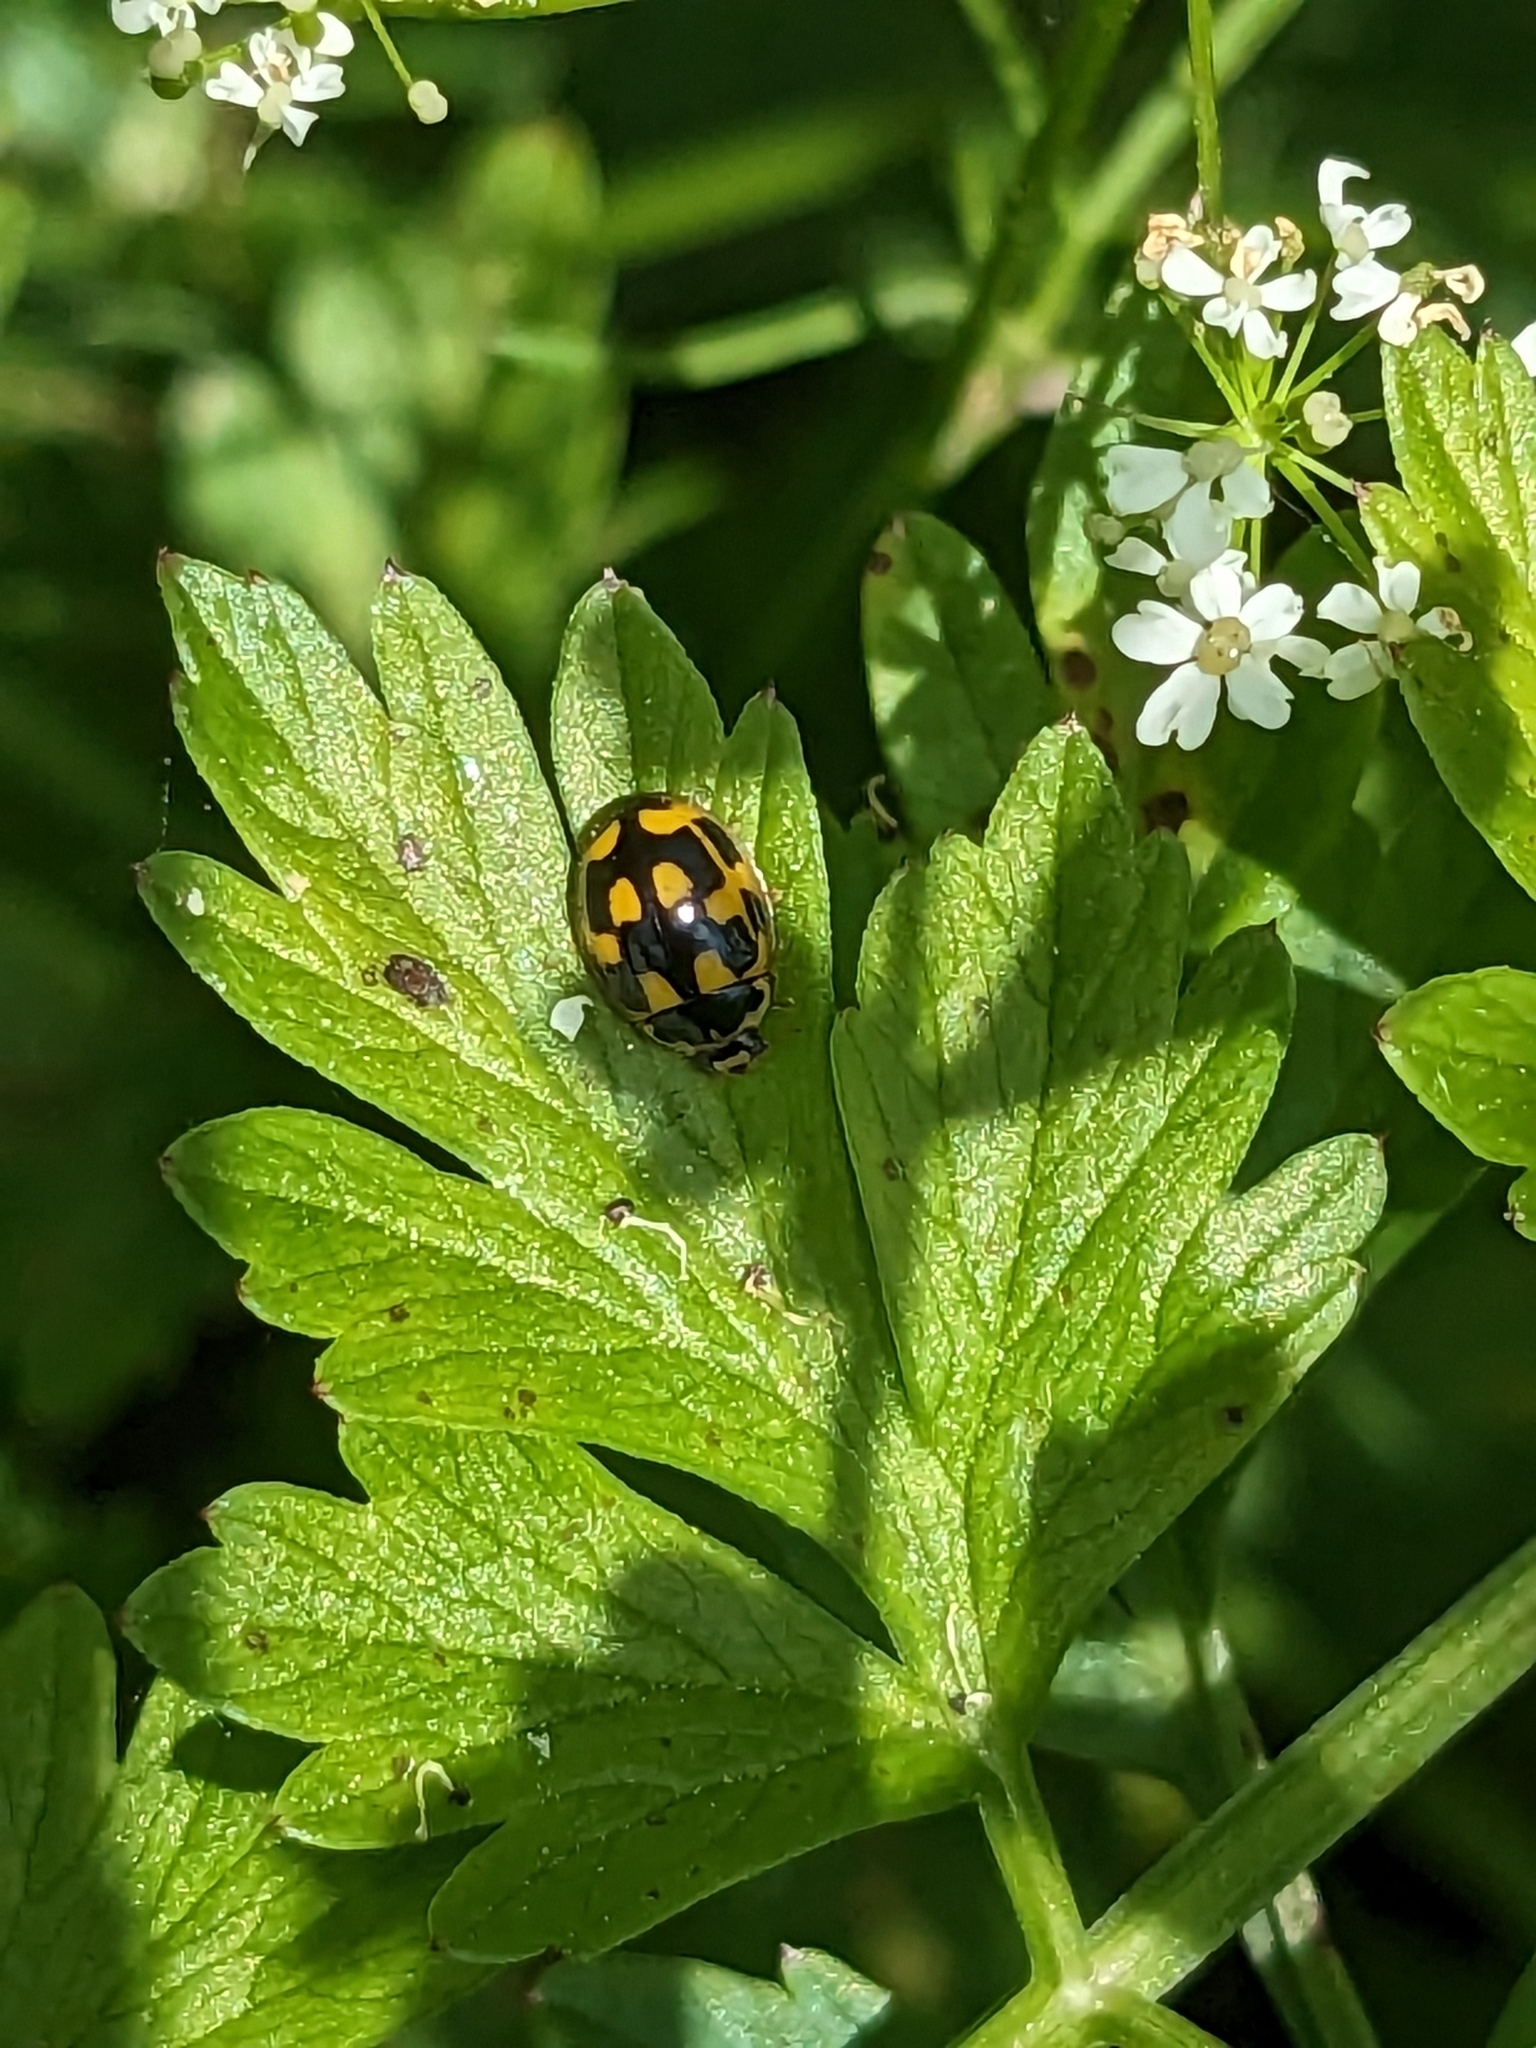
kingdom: Animalia
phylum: Arthropoda
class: Insecta
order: Coleoptera
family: Coccinellidae
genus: Propylaea
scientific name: Propylaea quatuordecimpunctata
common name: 14-spotted ladybird beetle
